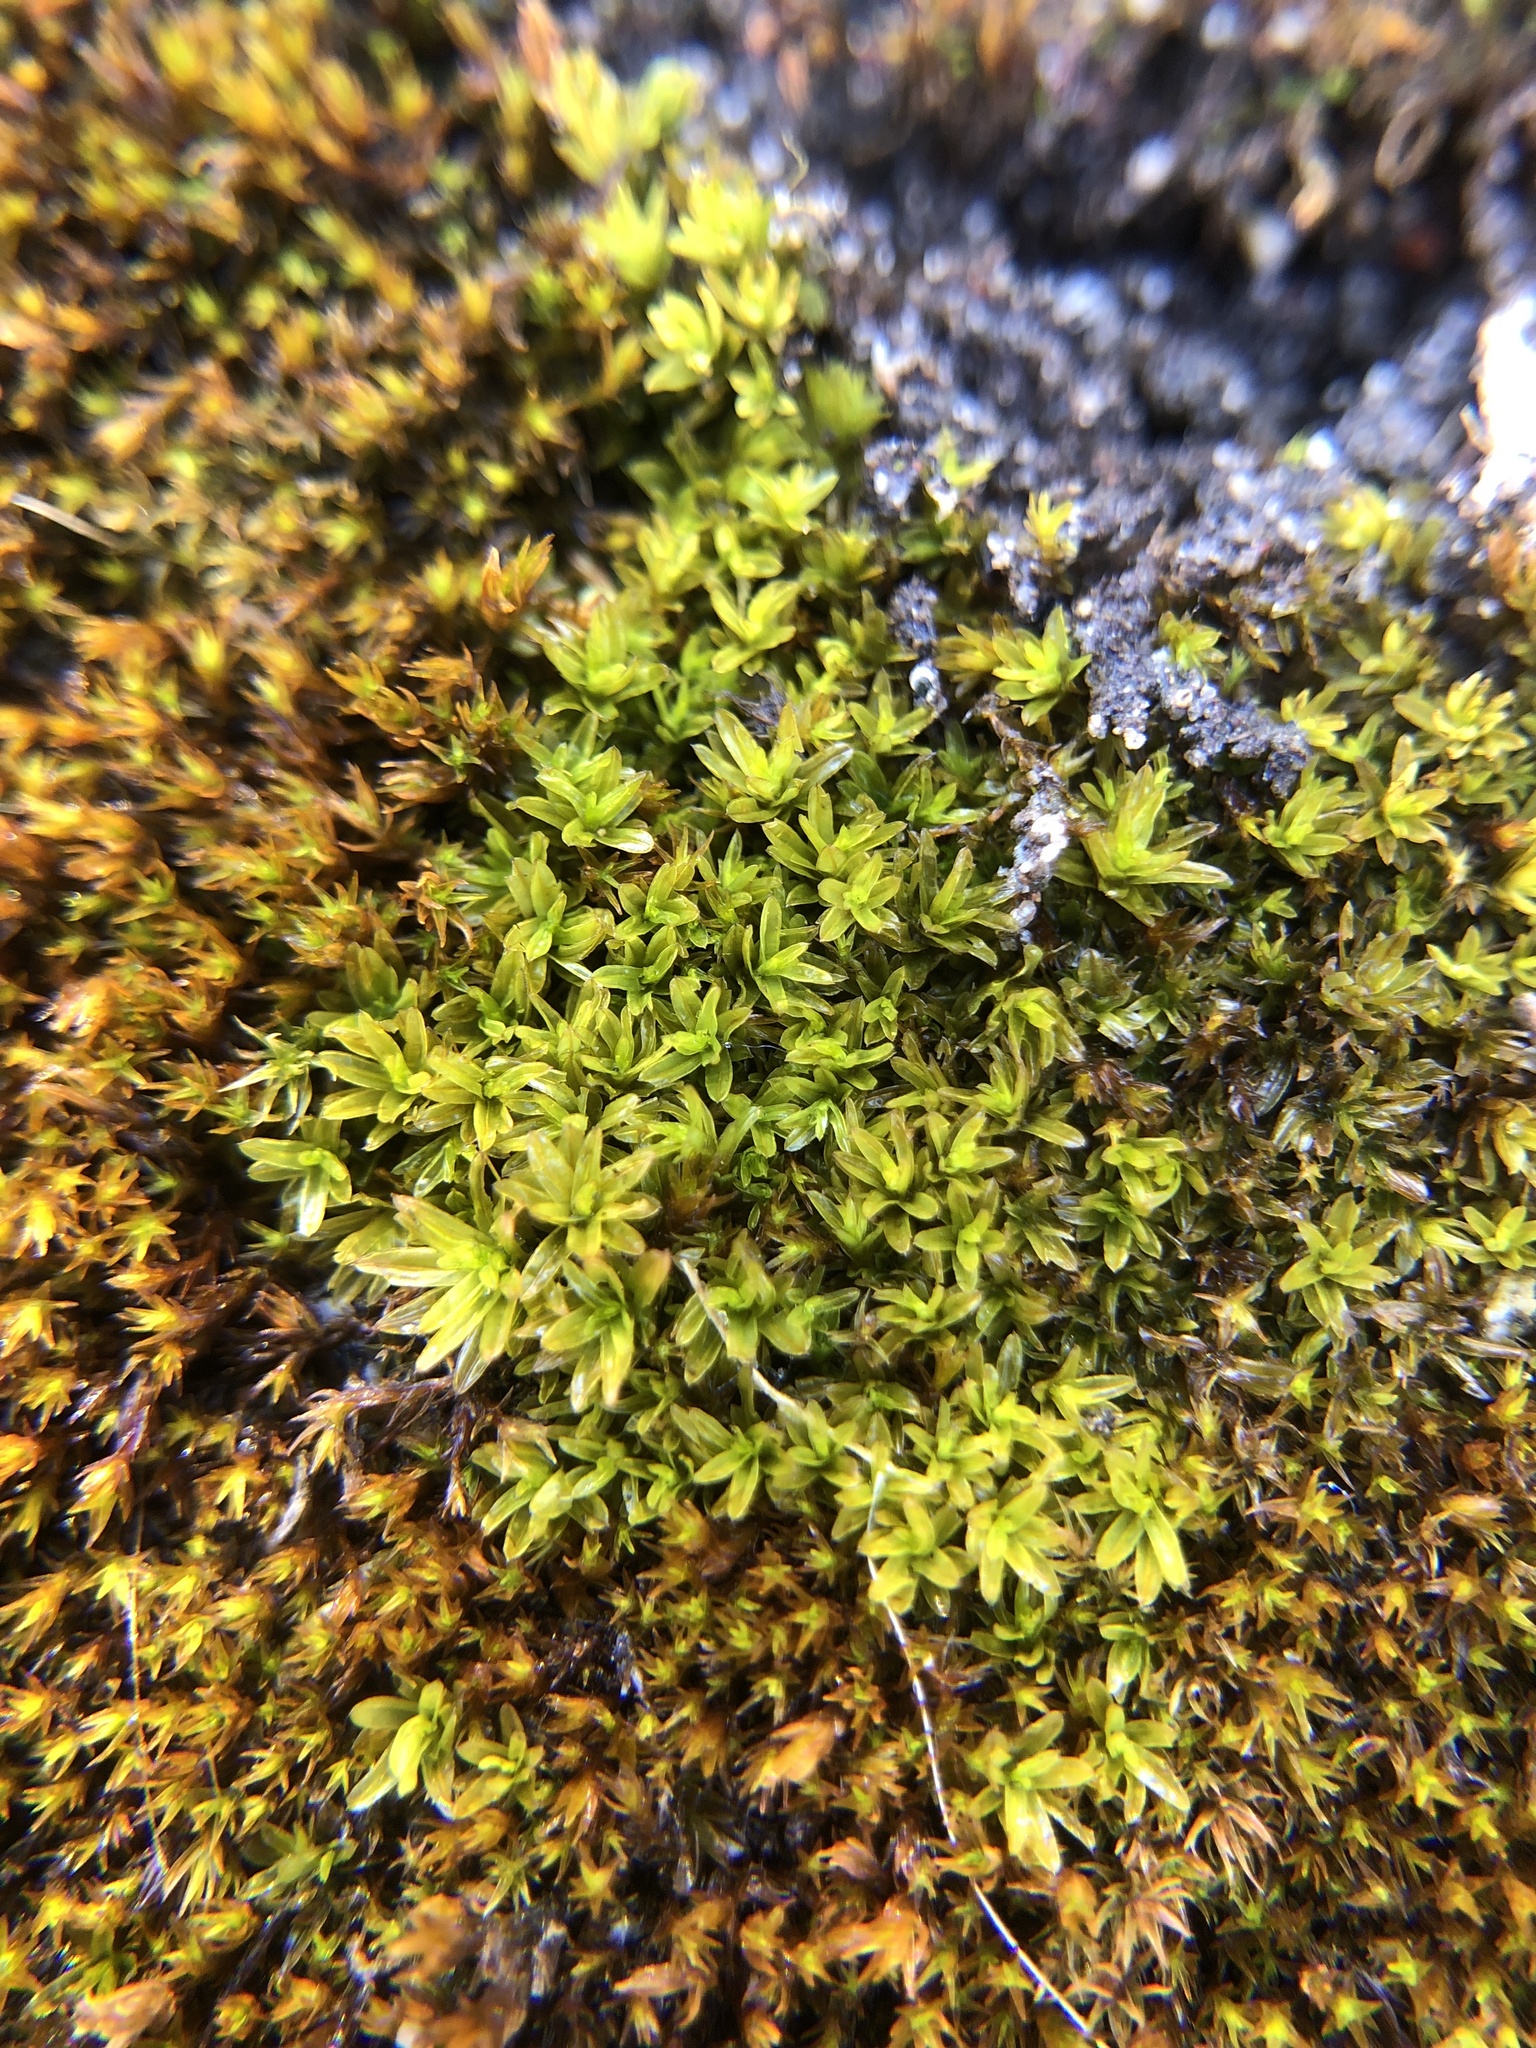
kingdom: Plantae
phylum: Bryophyta
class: Bryopsida
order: Pottiales
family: Pottiaceae
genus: Dialytrichia
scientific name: Dialytrichia mucronata
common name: Pointed lattice-moss
